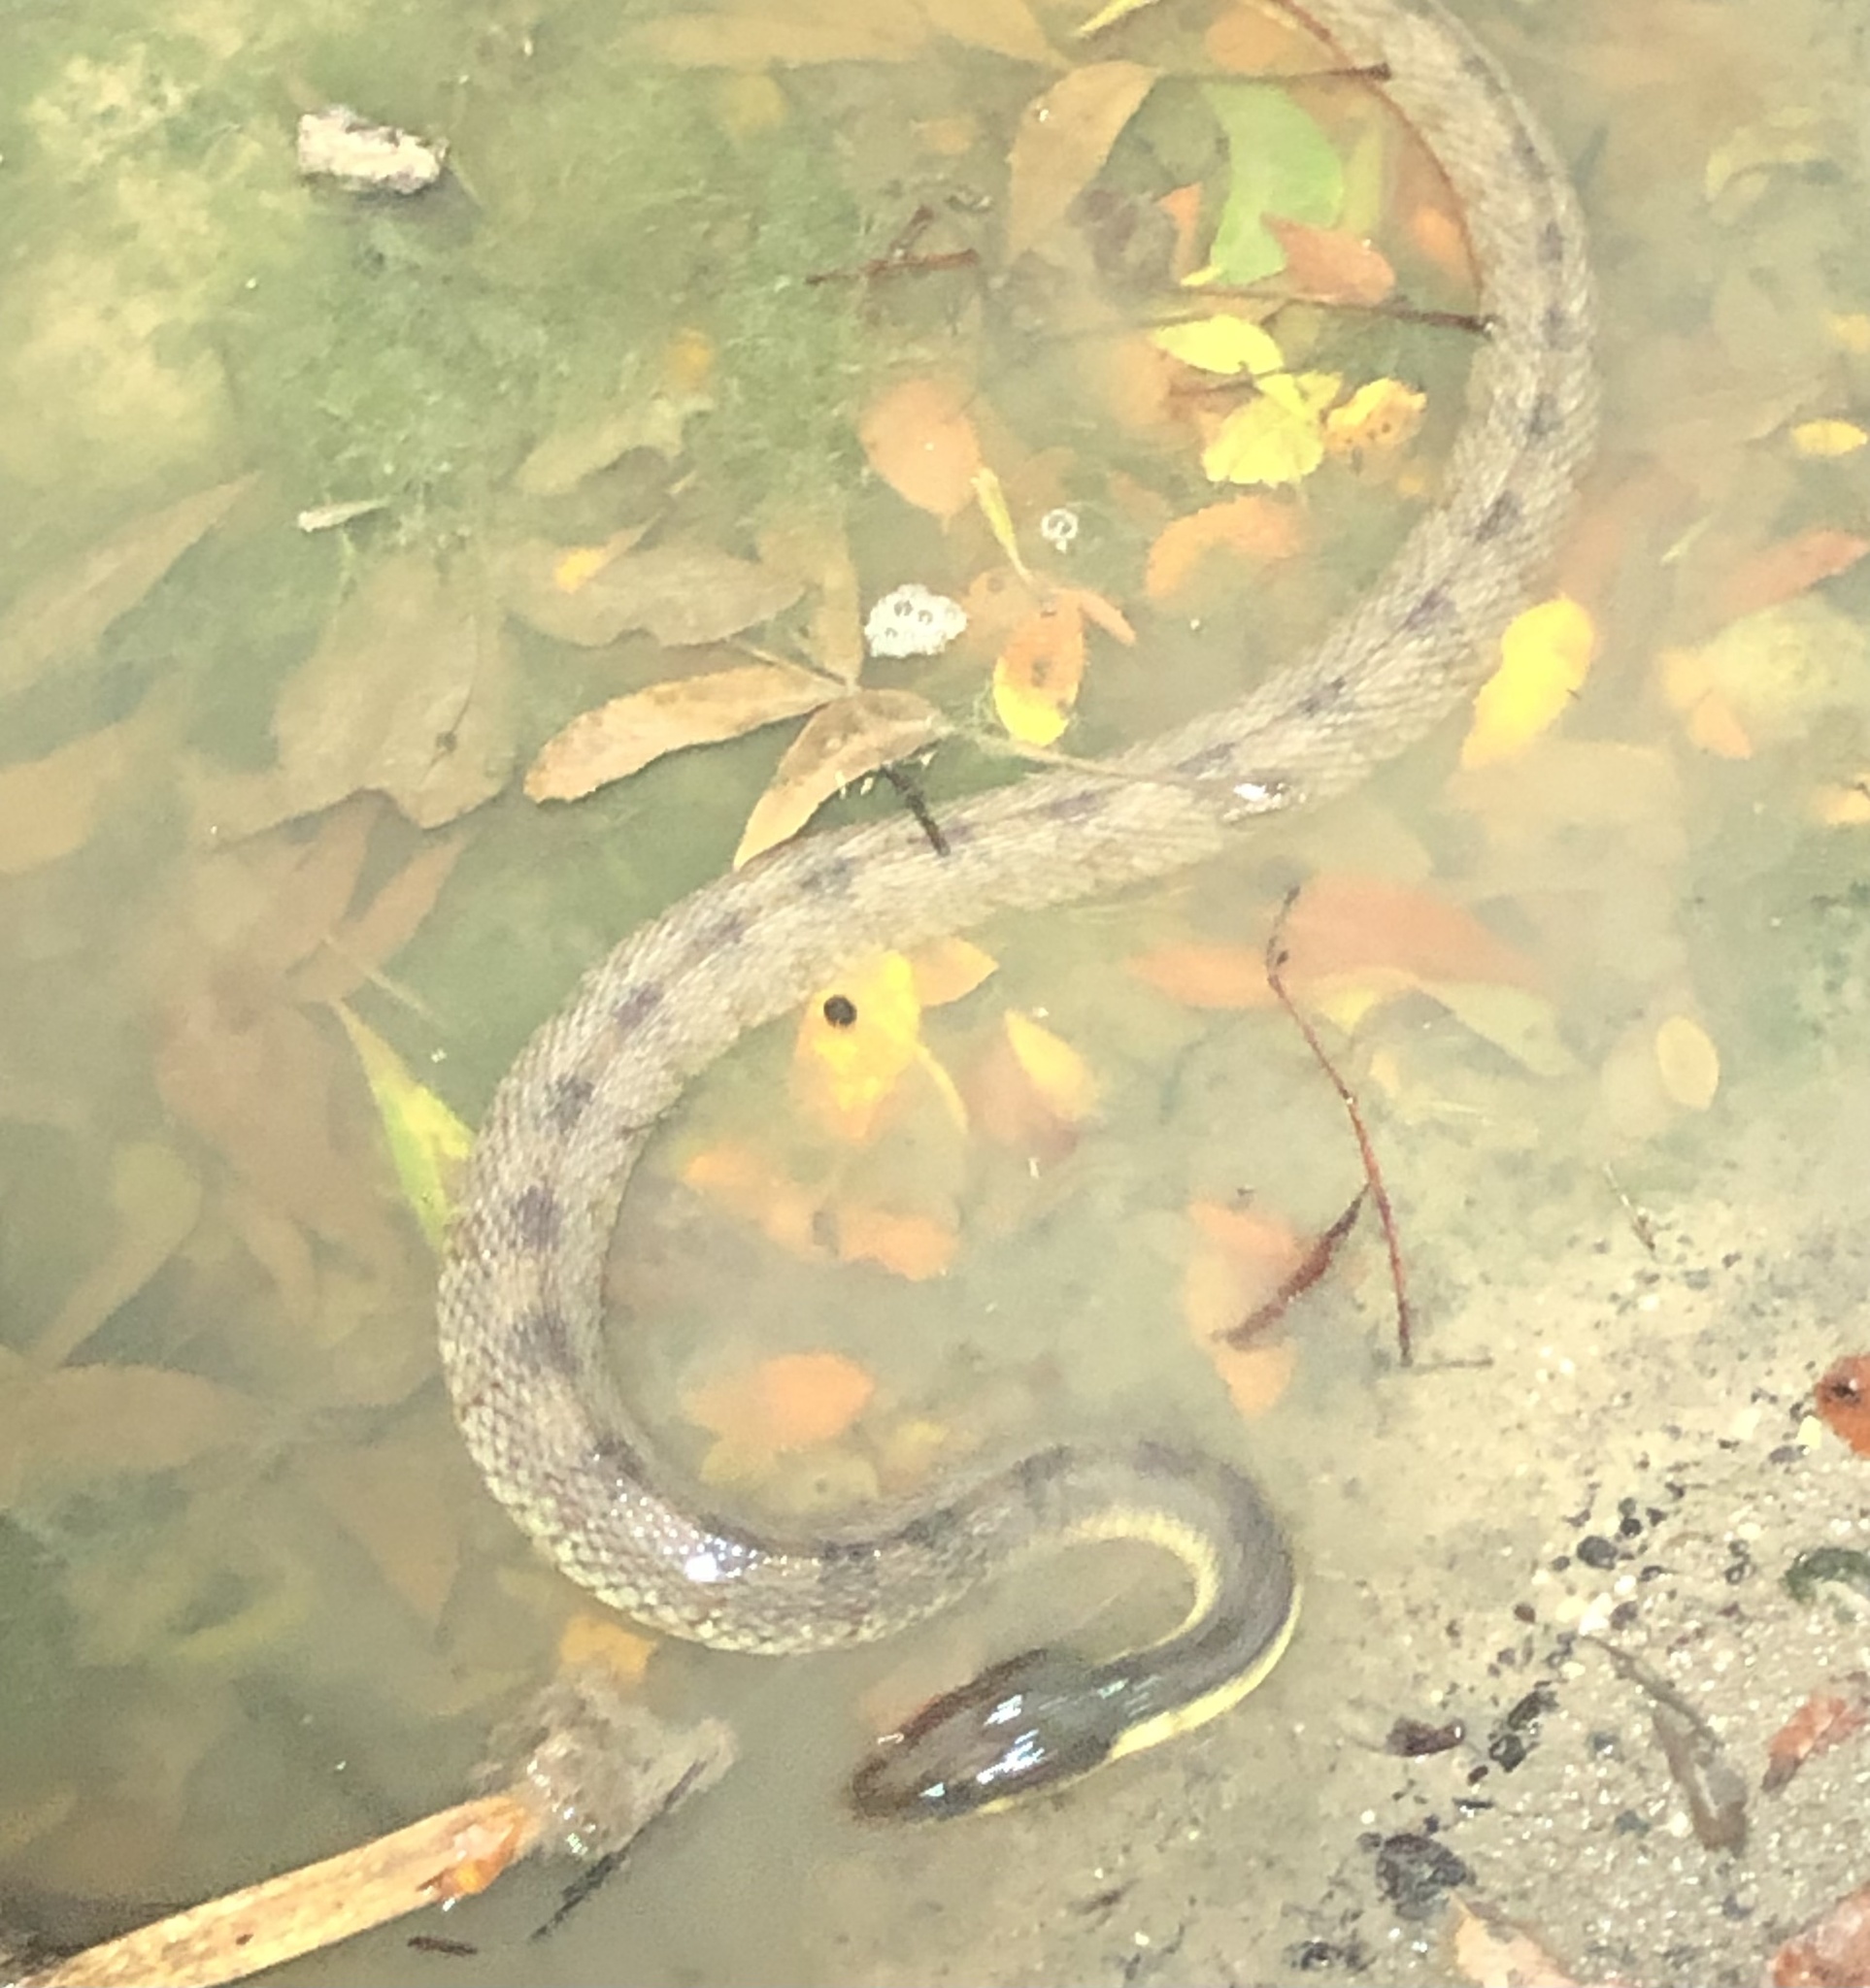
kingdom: Animalia
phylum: Chordata
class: Squamata
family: Colubridae
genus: Nerodia
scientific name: Nerodia rhombifer
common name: Diamondback water snake
